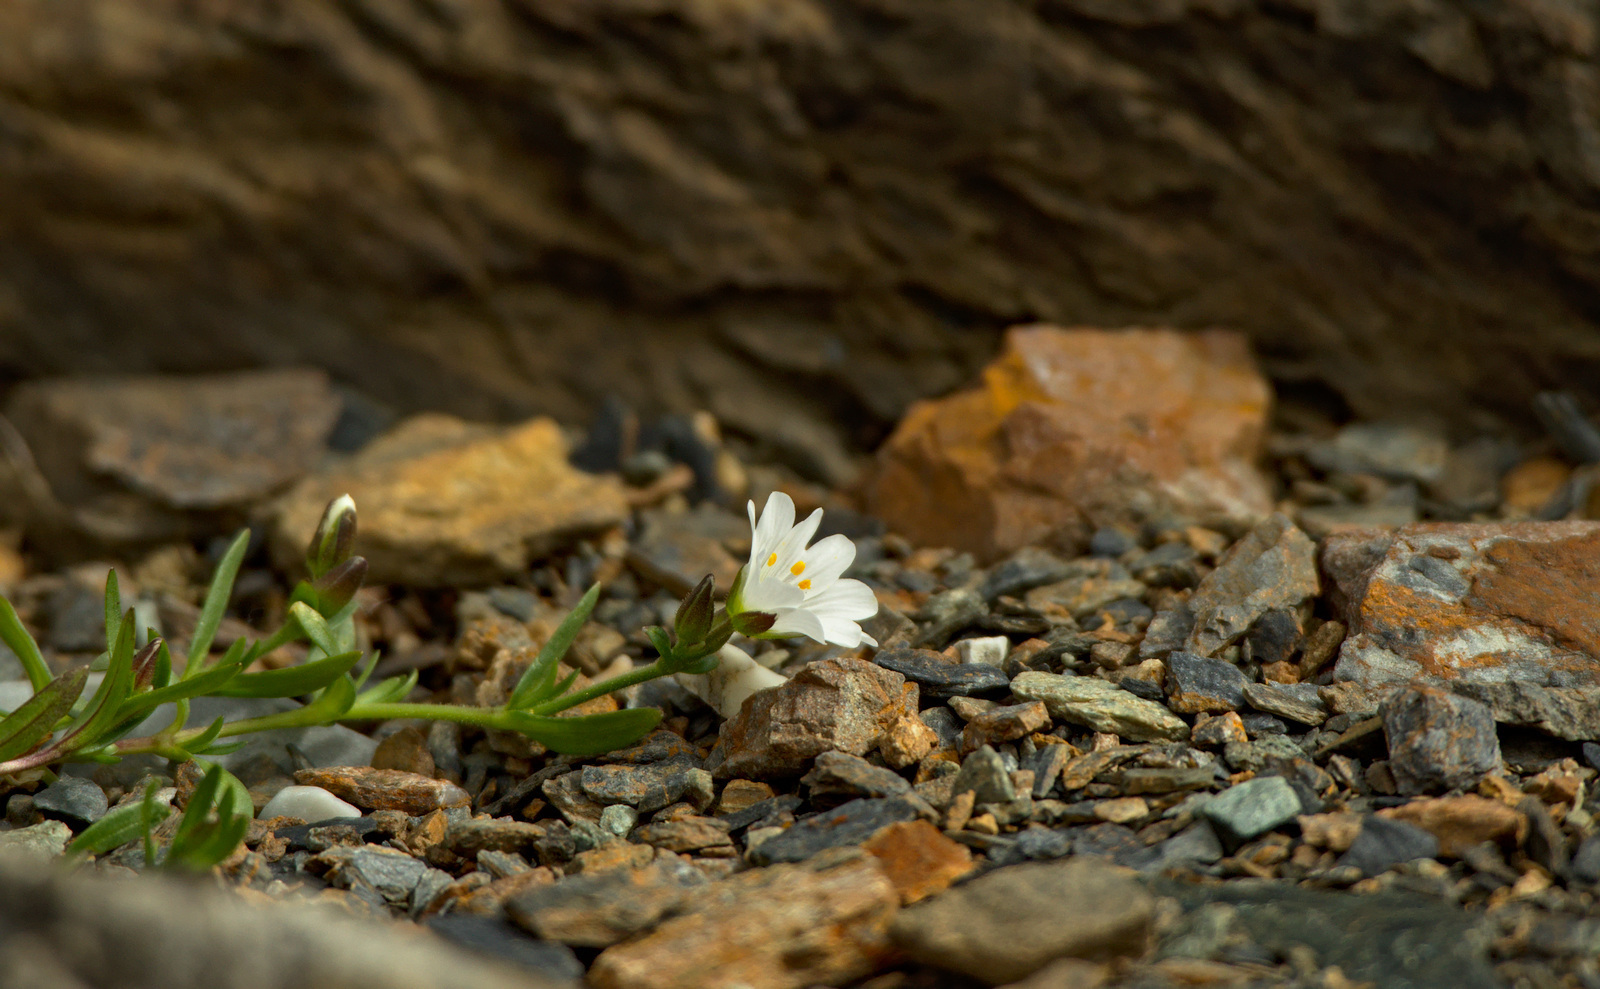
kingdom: Plantae
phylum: Tracheophyta
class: Magnoliopsida
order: Caryophyllales
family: Caryophyllaceae
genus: Dichodon
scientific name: Dichodon cerastoides
